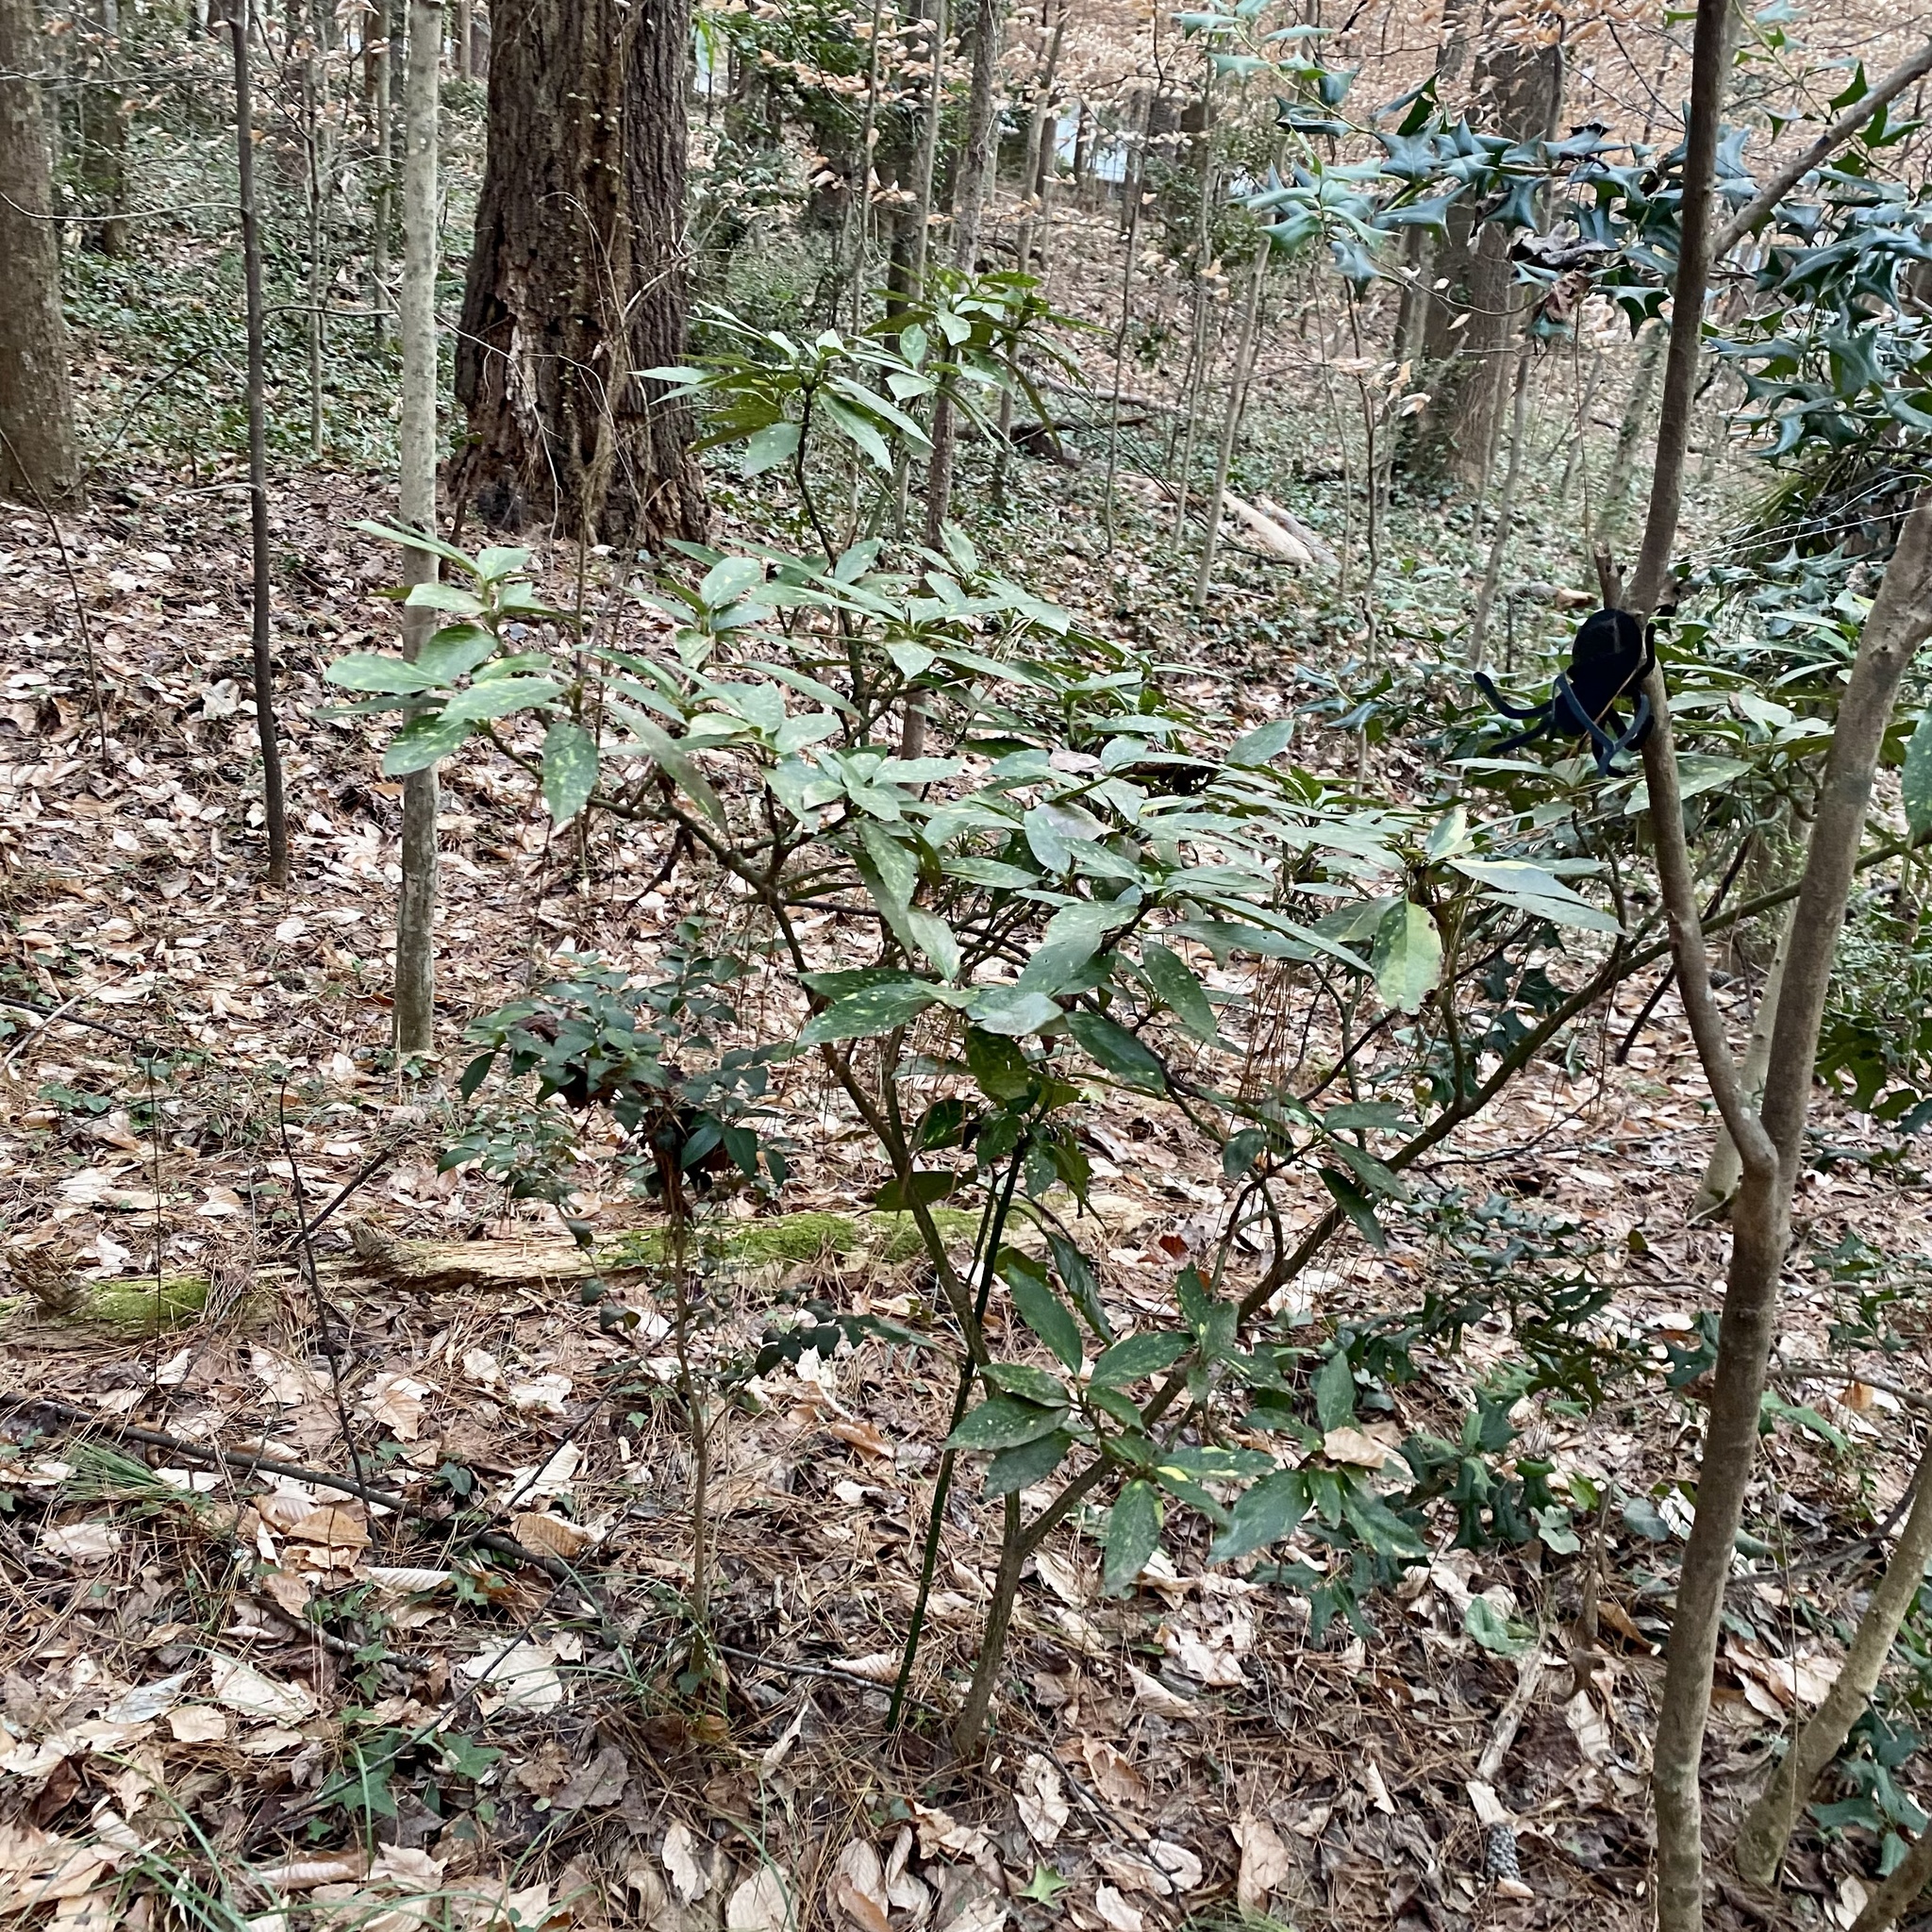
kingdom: Plantae
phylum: Tracheophyta
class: Magnoliopsida
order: Garryales
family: Garryaceae
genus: Aucuba
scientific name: Aucuba japonica
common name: Spotted-laurel
